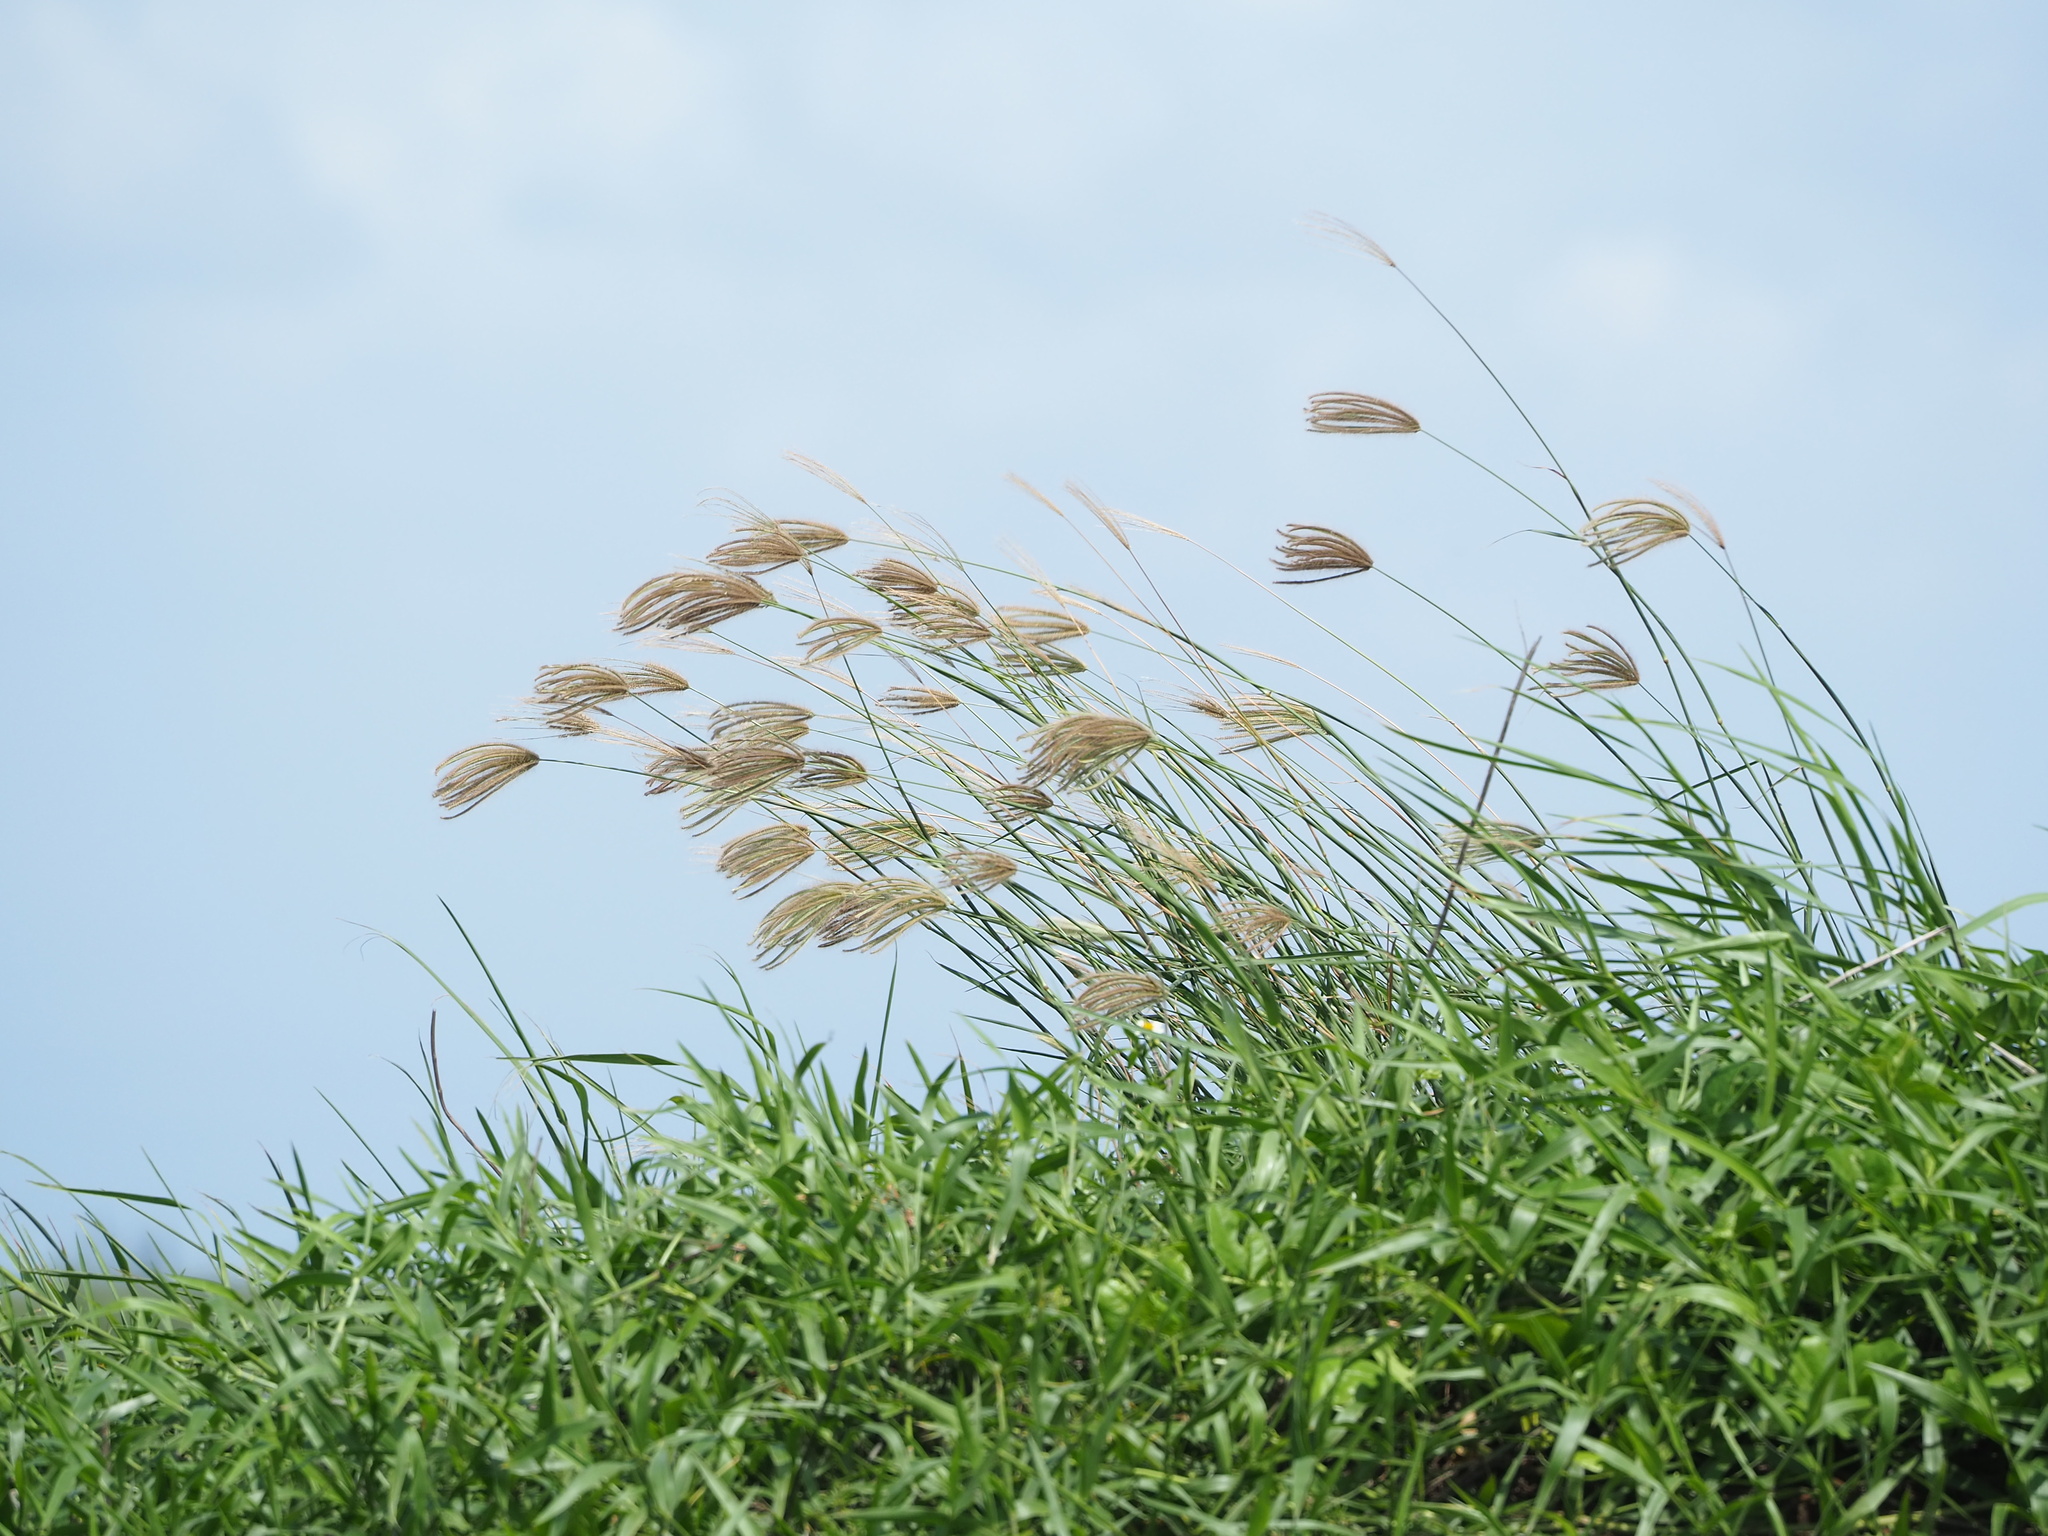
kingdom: Plantae
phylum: Tracheophyta
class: Liliopsida
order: Poales
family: Poaceae
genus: Chloris
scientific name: Chloris barbata
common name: Swollen fingergrass
